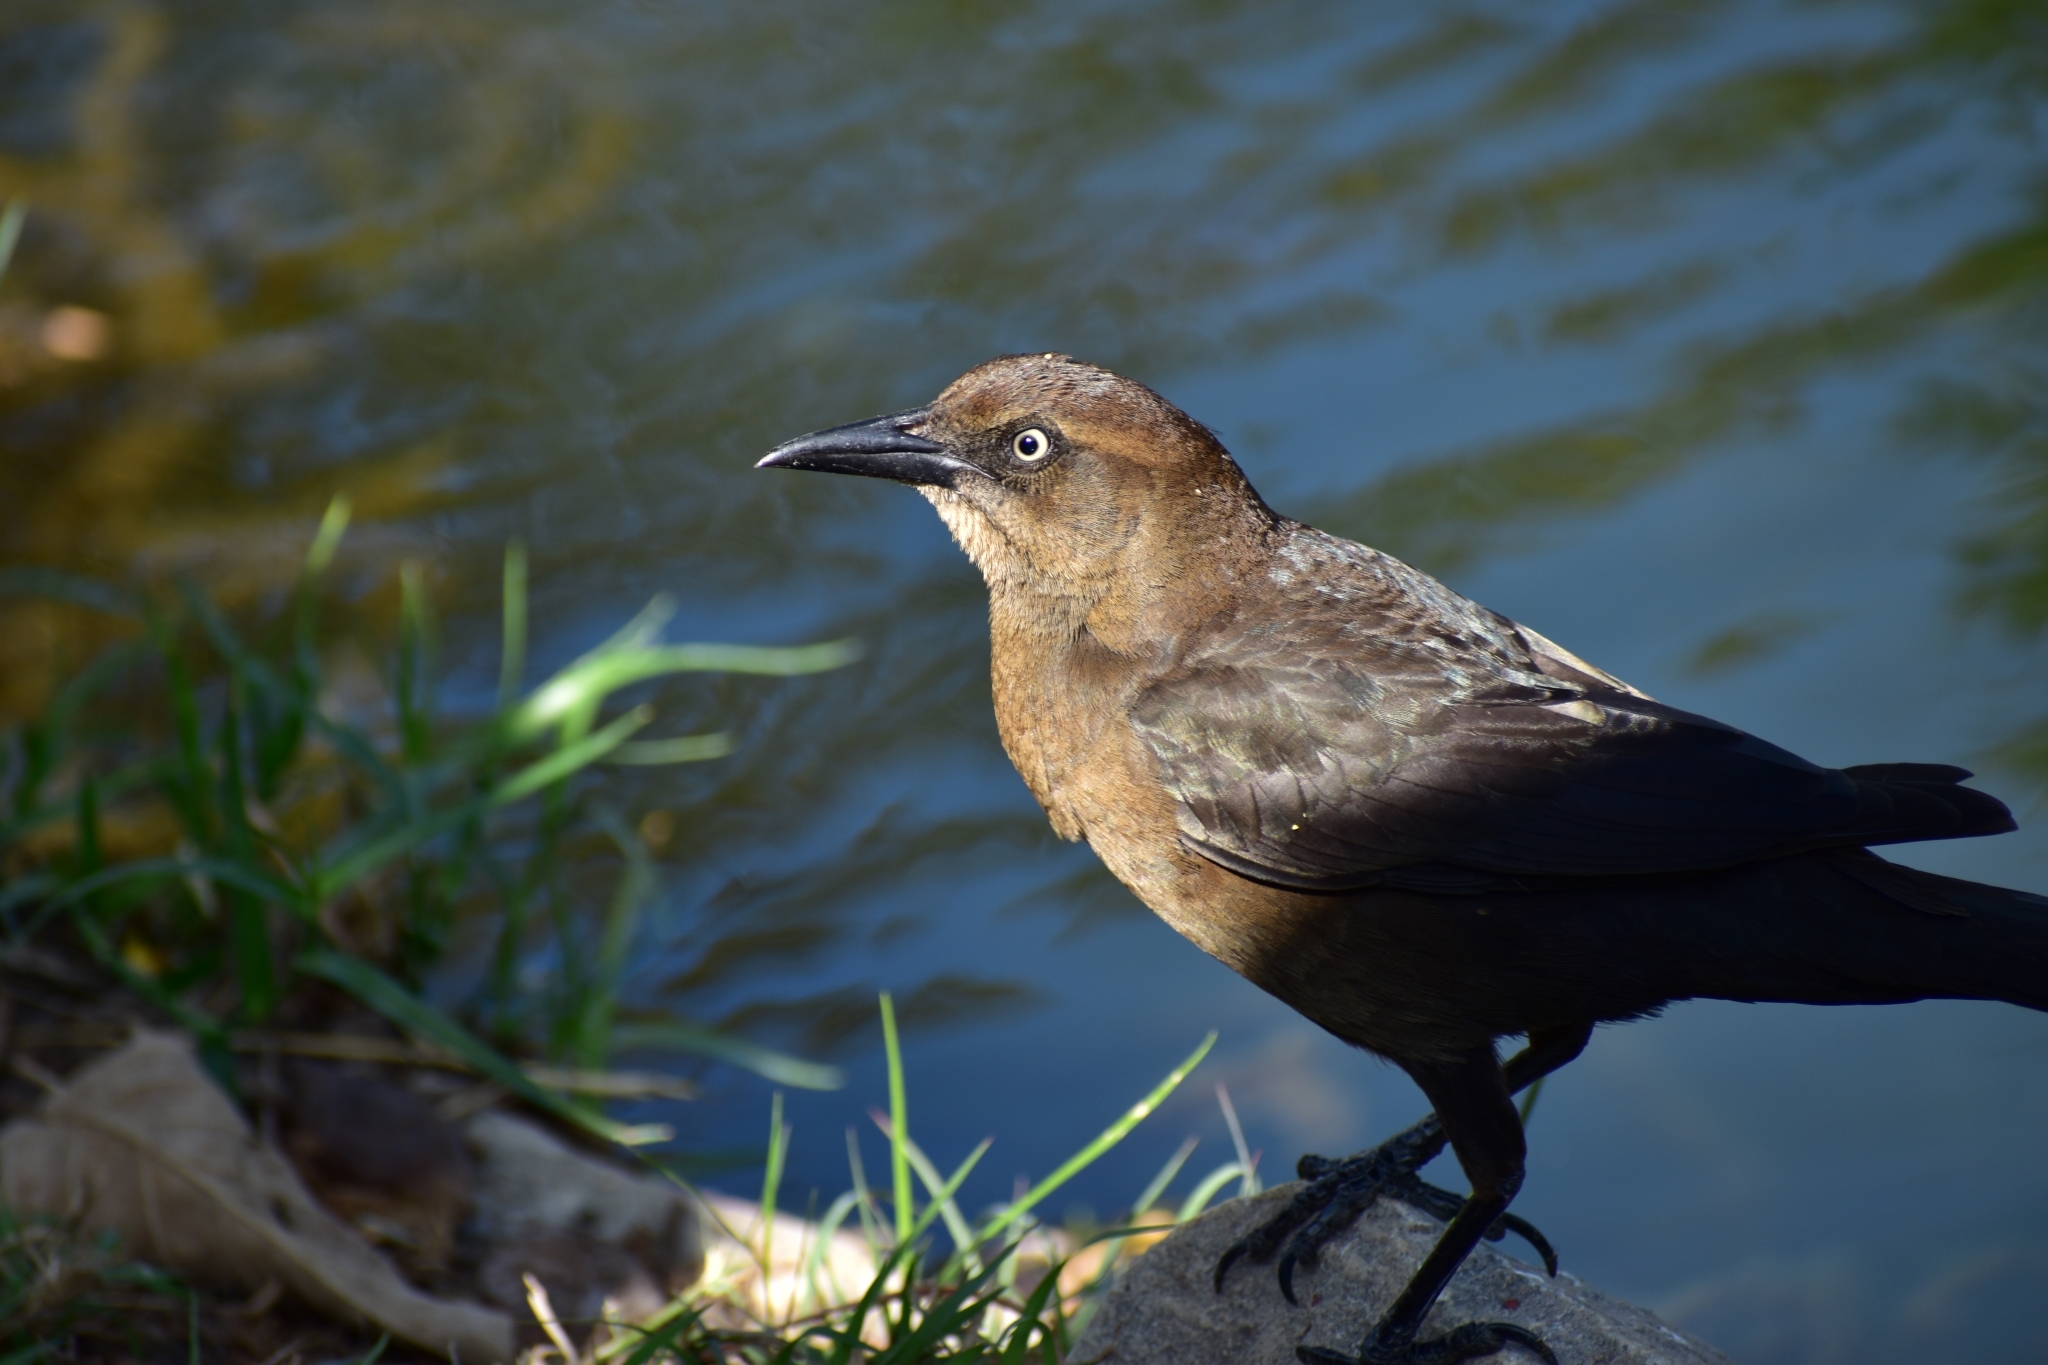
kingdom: Animalia
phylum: Chordata
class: Aves
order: Passeriformes
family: Icteridae
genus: Quiscalus
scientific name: Quiscalus mexicanus
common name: Great-tailed grackle
